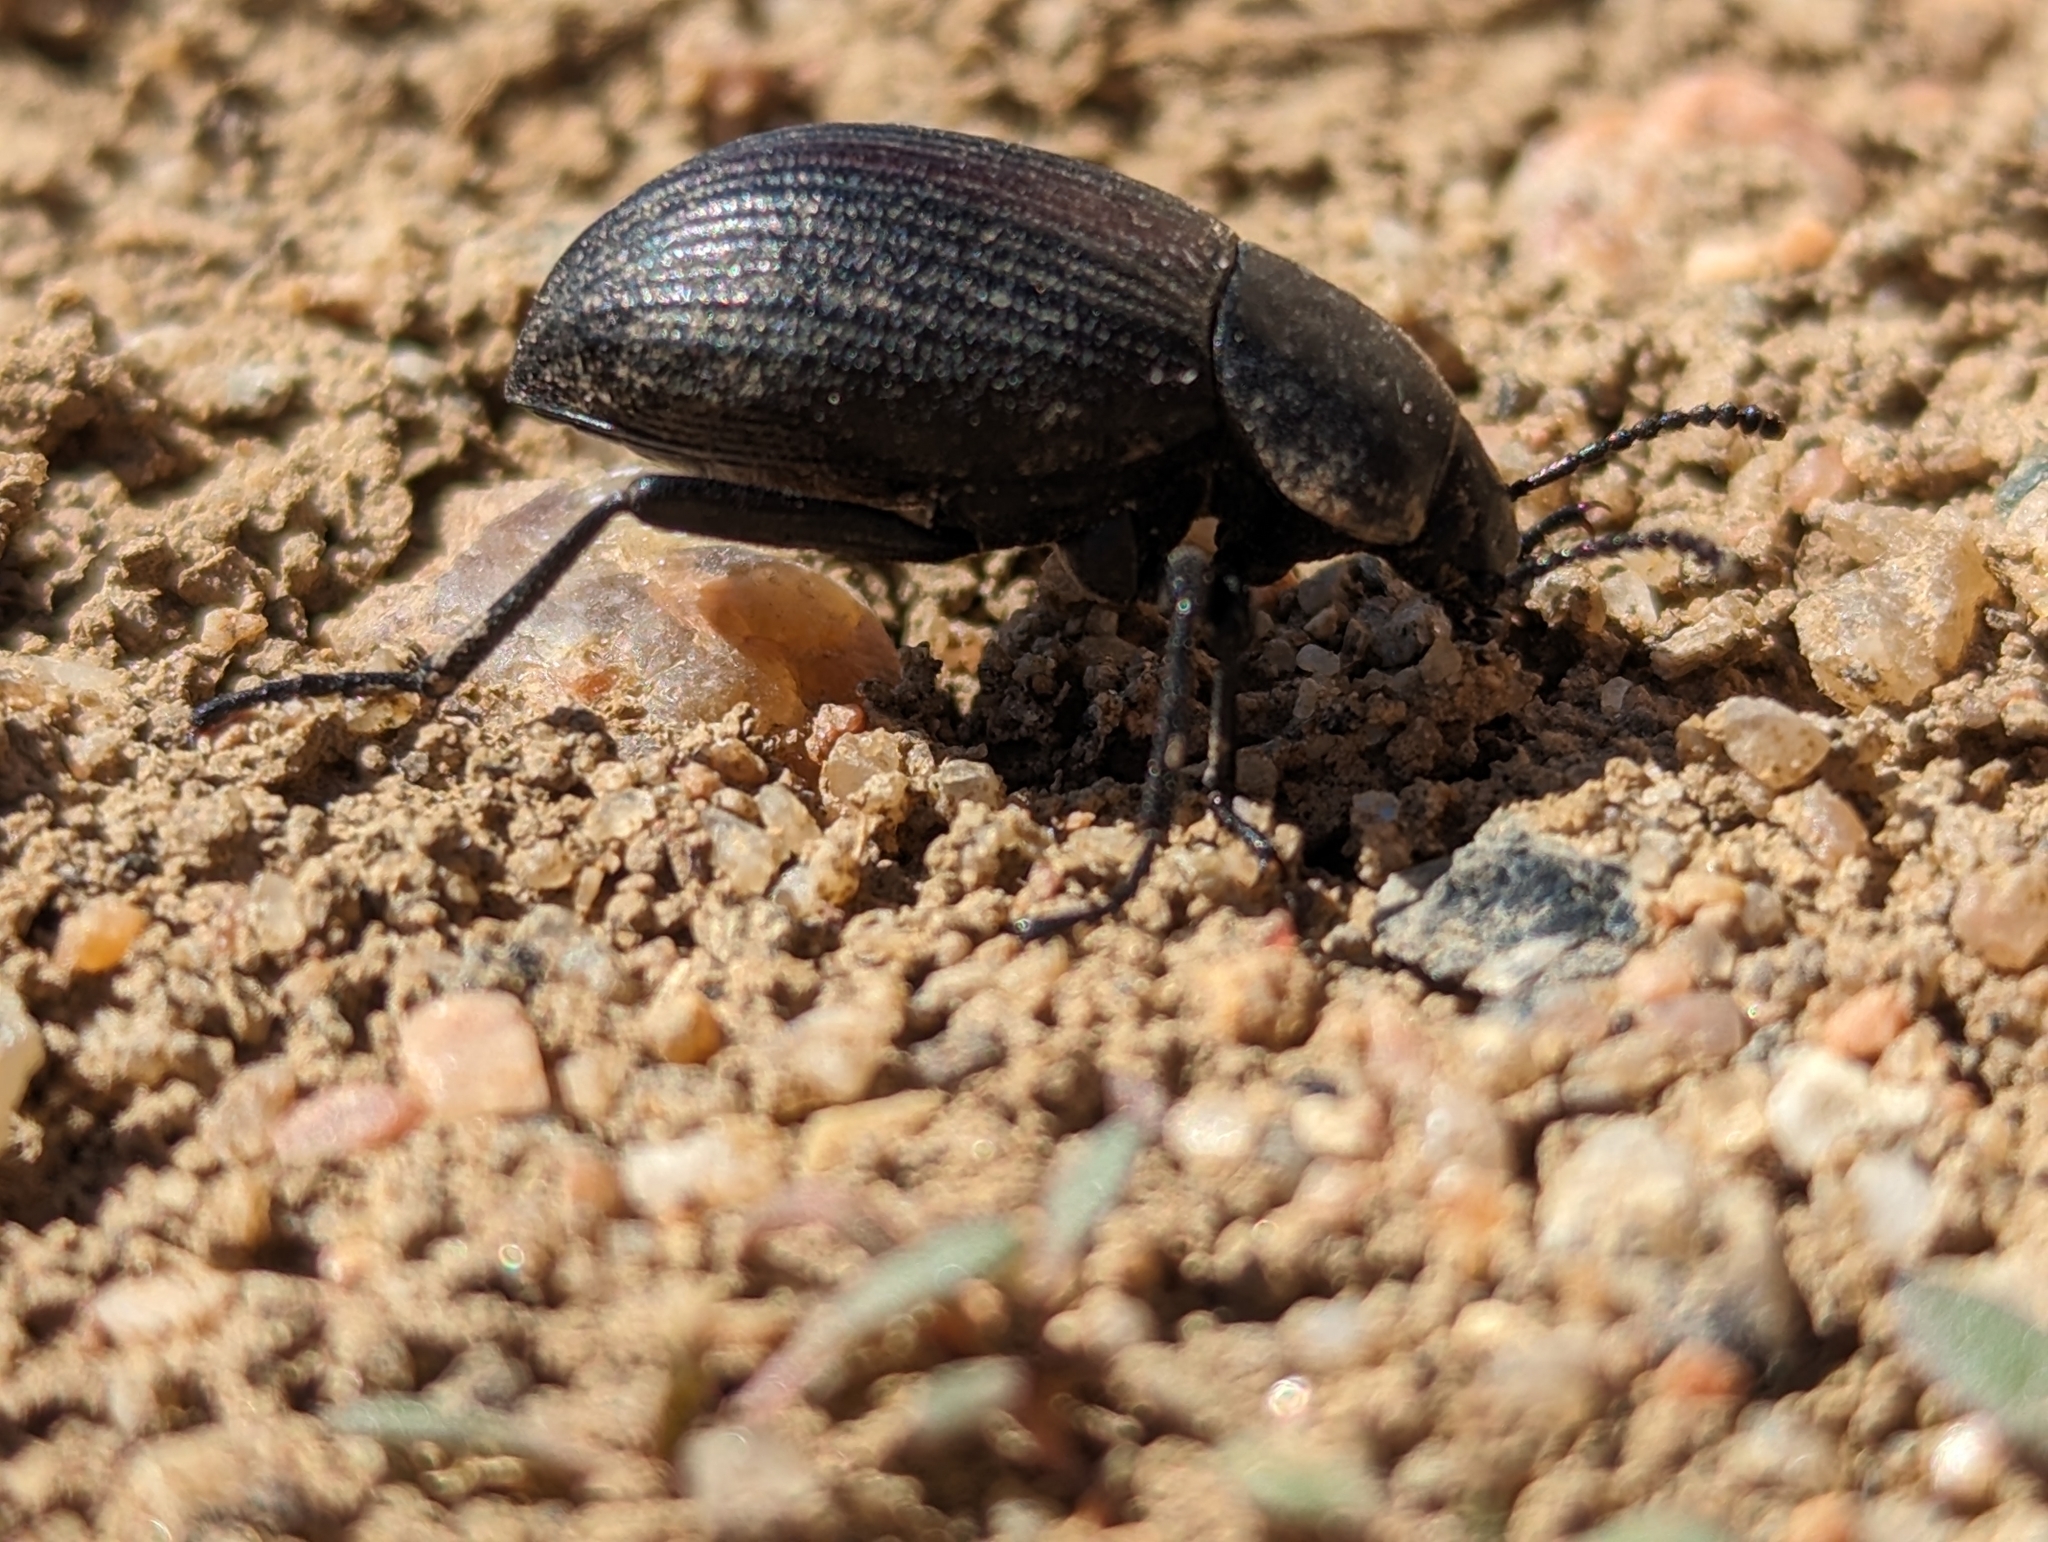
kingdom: Animalia
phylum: Arthropoda
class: Insecta
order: Coleoptera
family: Tenebrionidae
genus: Eleodes
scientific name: Eleodes carbonaria
